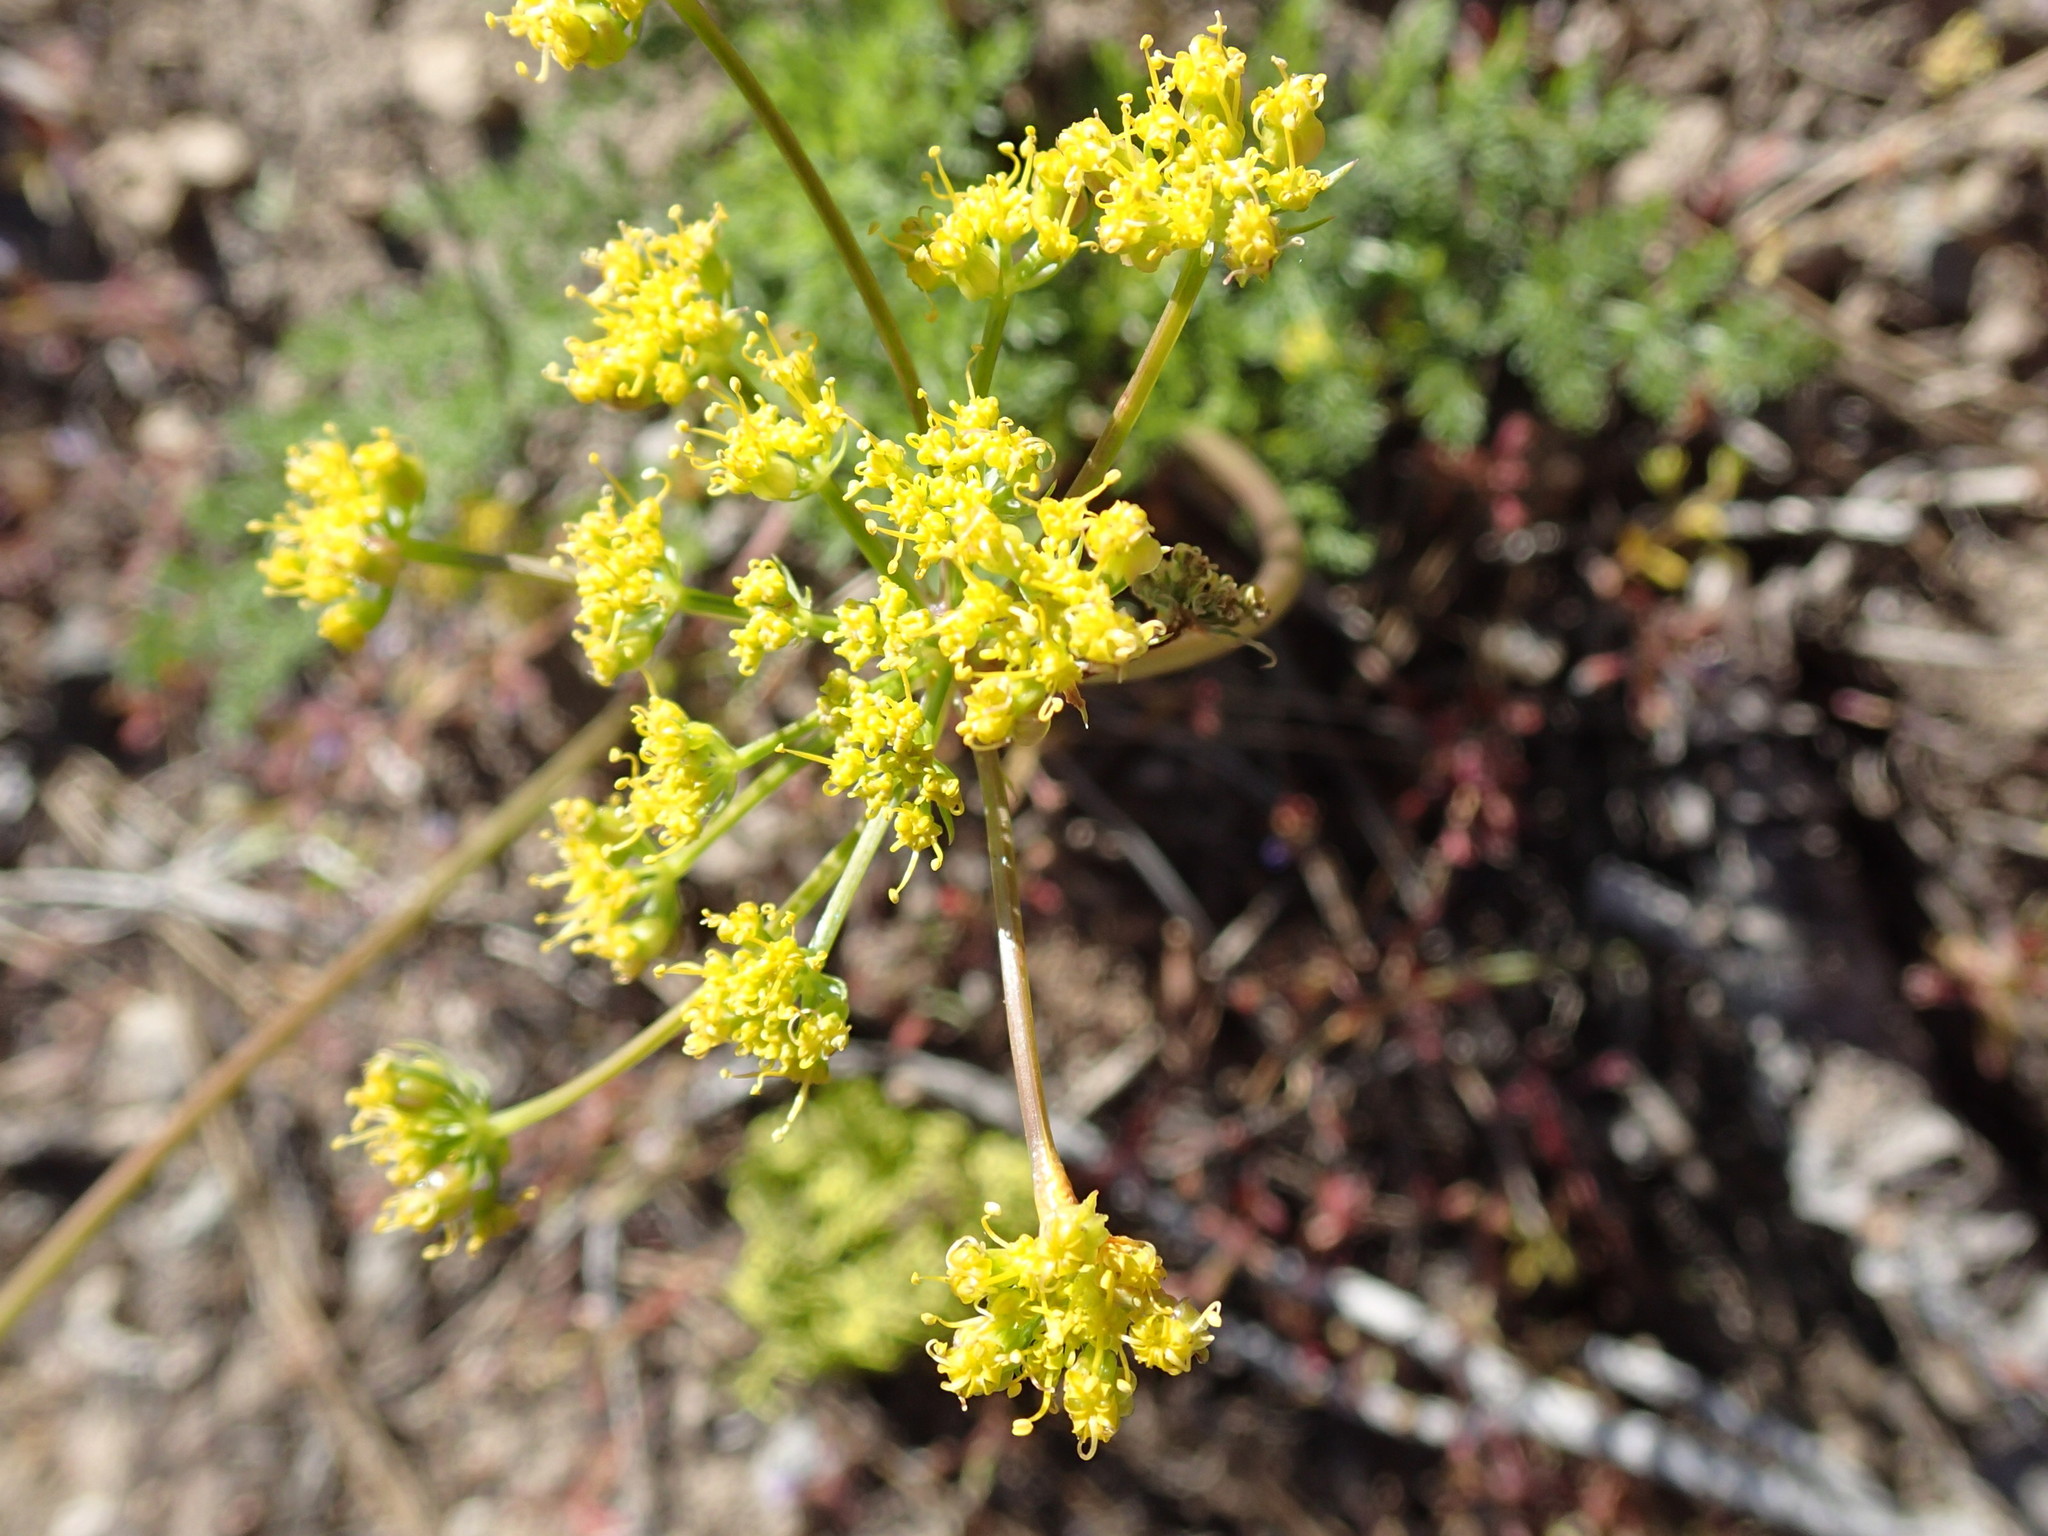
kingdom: Plantae
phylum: Tracheophyta
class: Magnoliopsida
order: Apiales
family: Apiaceae
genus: Pteryxia
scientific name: Pteryxia terebinthina
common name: Turpentine wavewing
